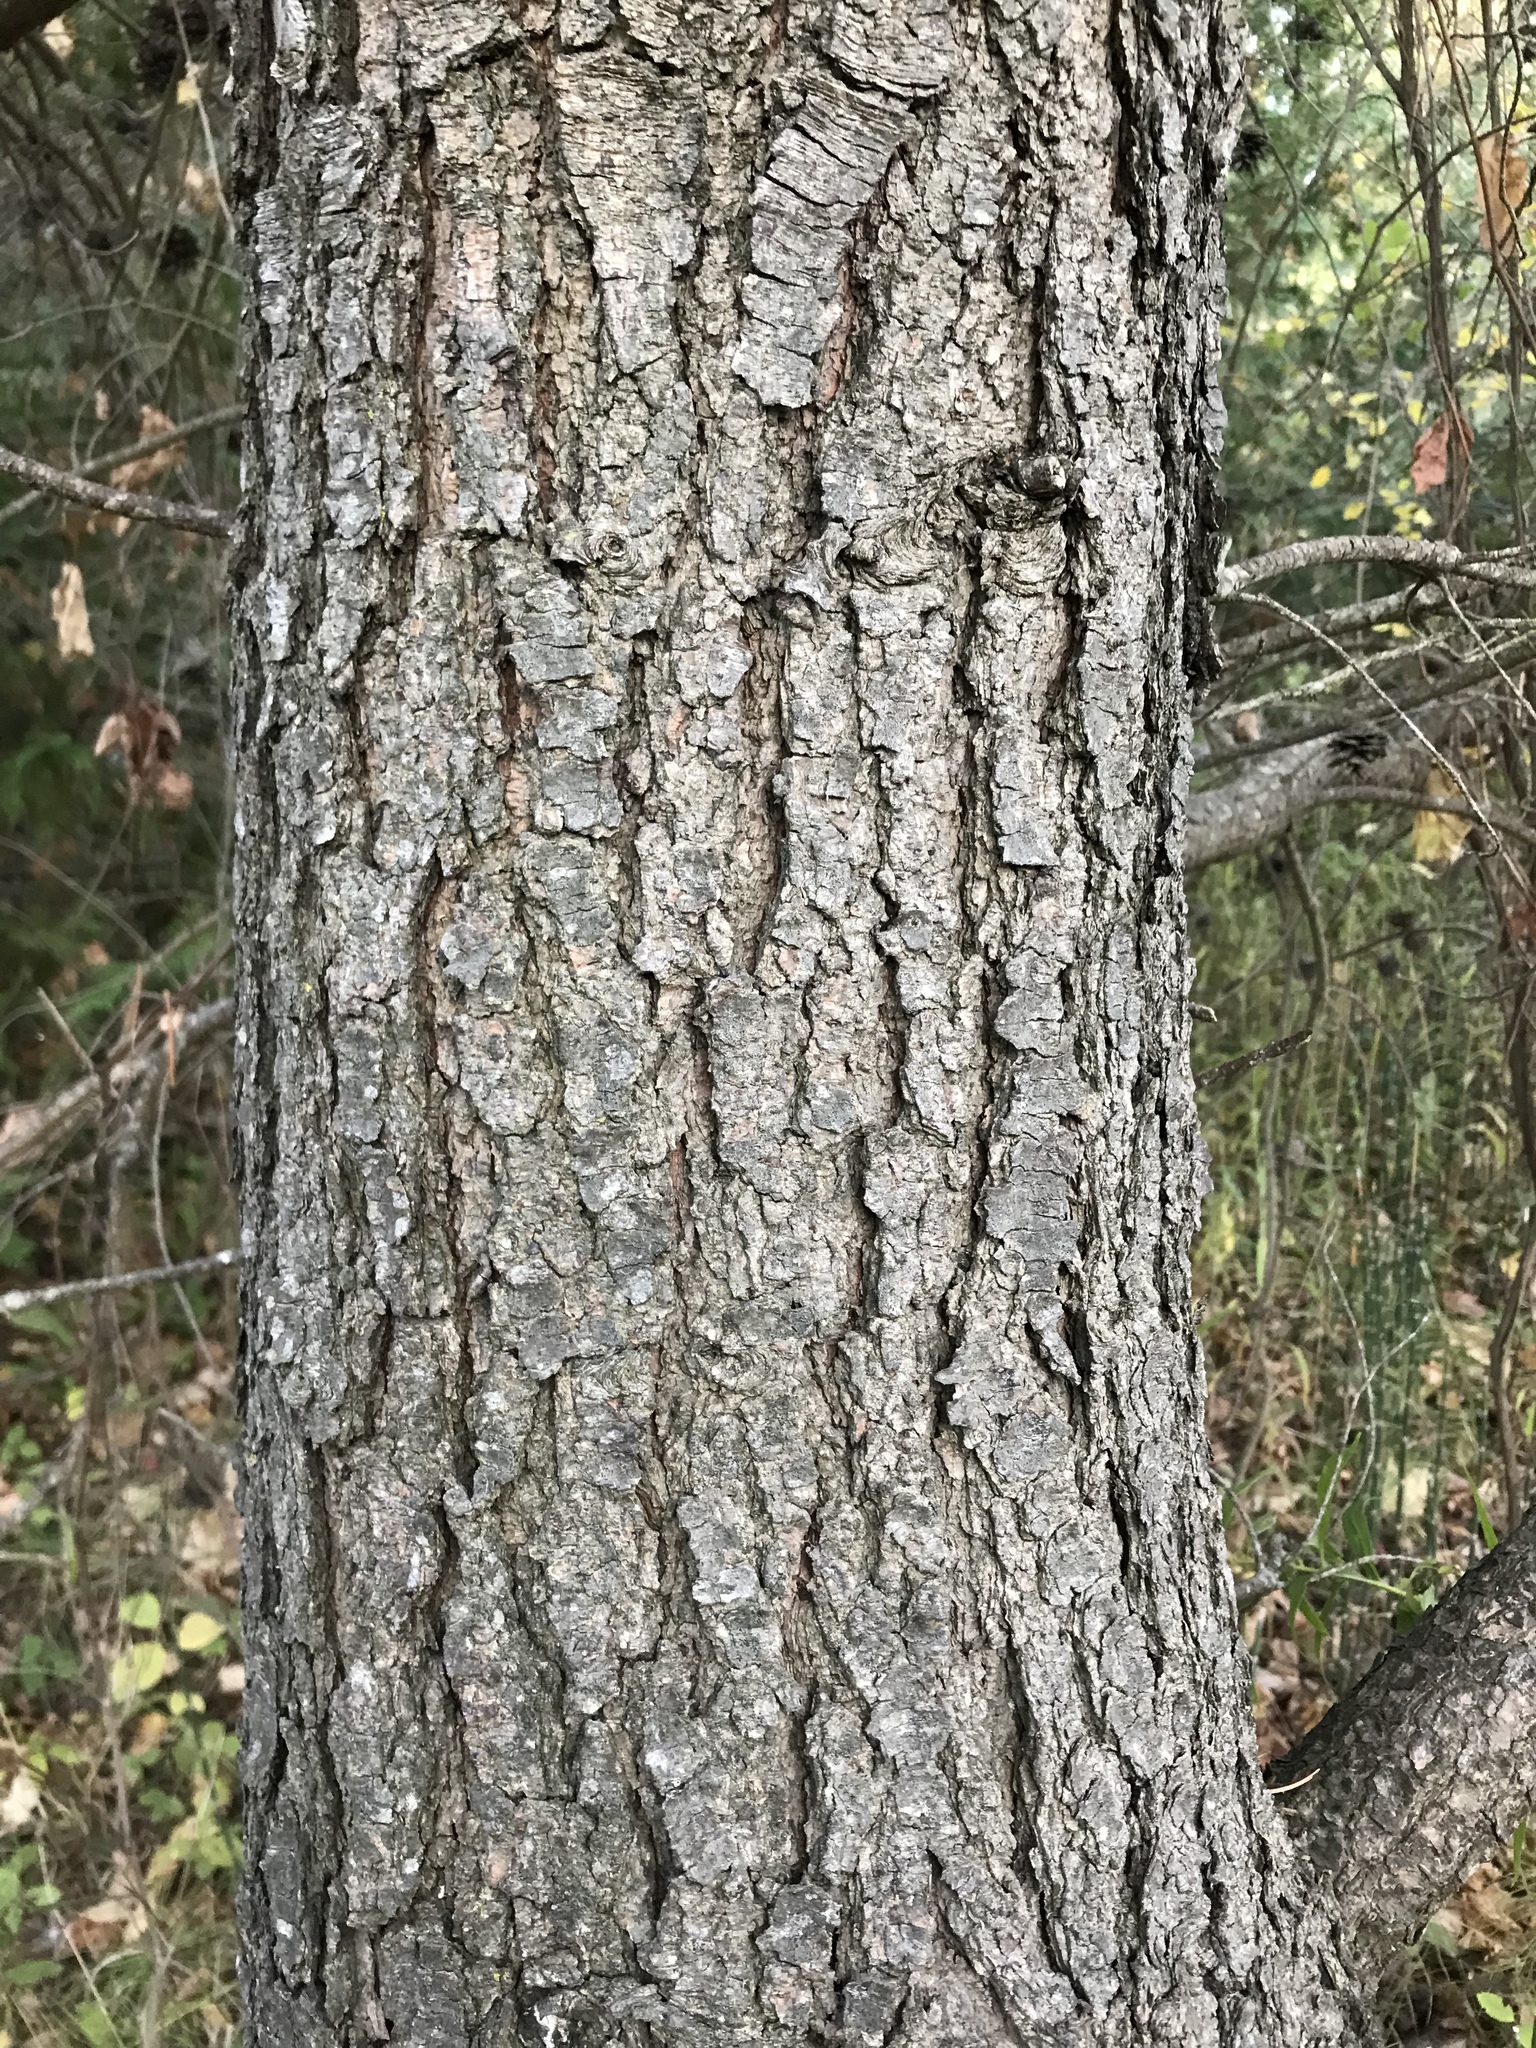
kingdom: Plantae
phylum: Tracheophyta
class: Pinopsida
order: Pinales
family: Pinaceae
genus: Pinus
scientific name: Pinus banksiana
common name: Jack pine
